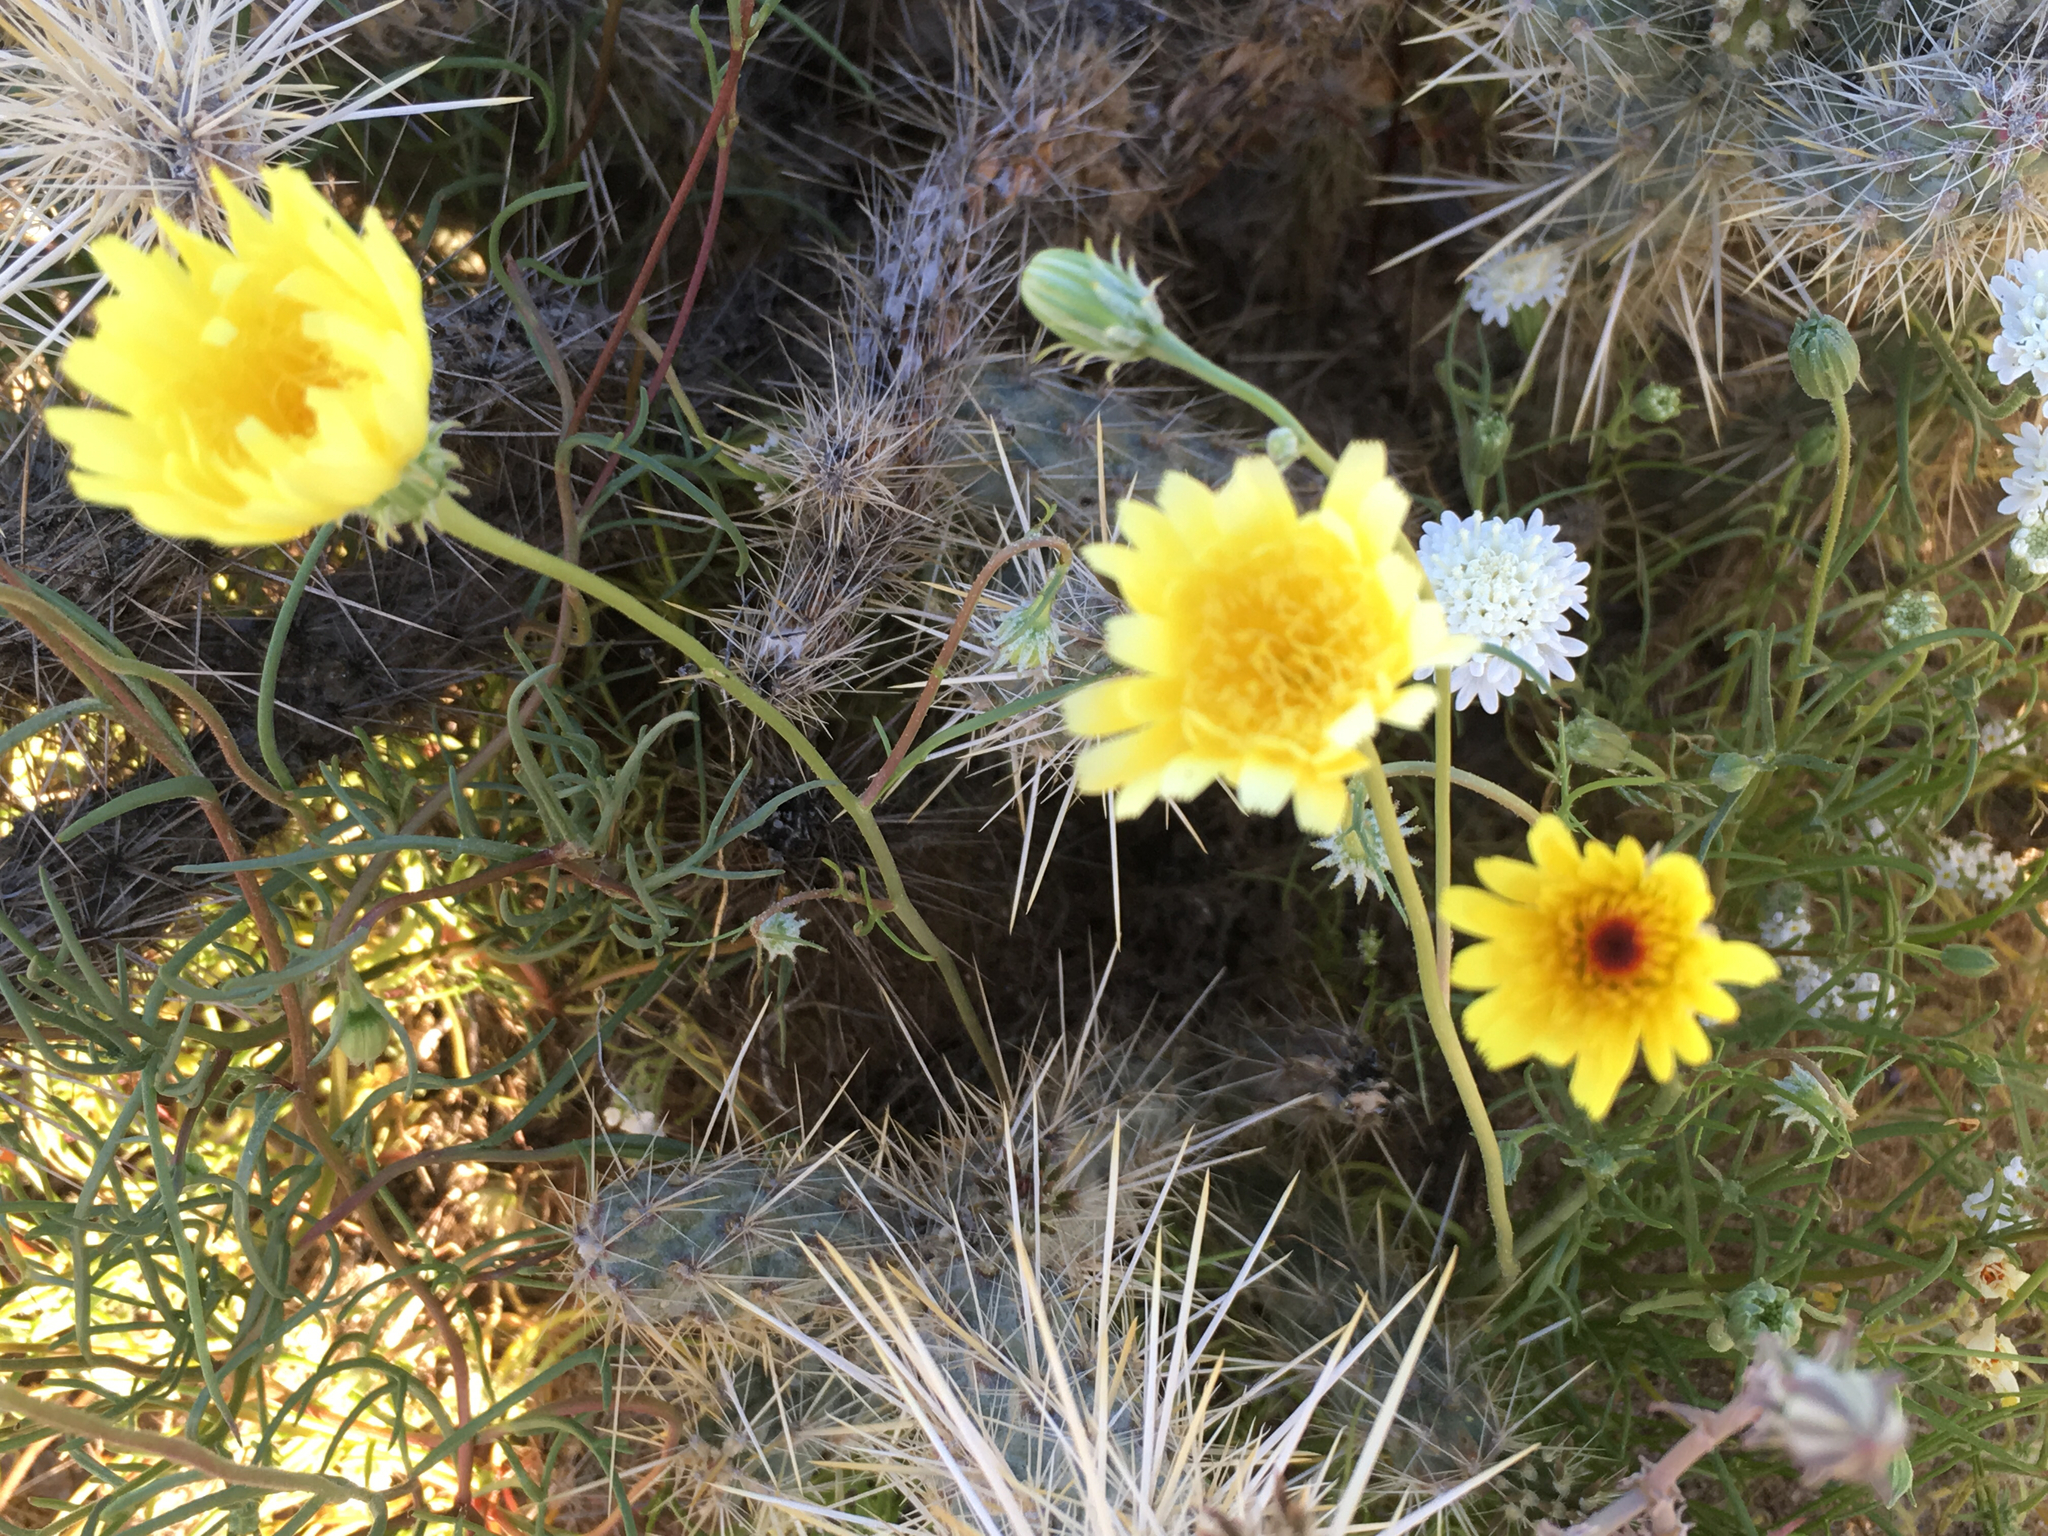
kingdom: Plantae
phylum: Tracheophyta
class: Magnoliopsida
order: Asterales
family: Asteraceae
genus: Malacothrix
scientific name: Malacothrix glabrata
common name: Smooth desert-dandelion
